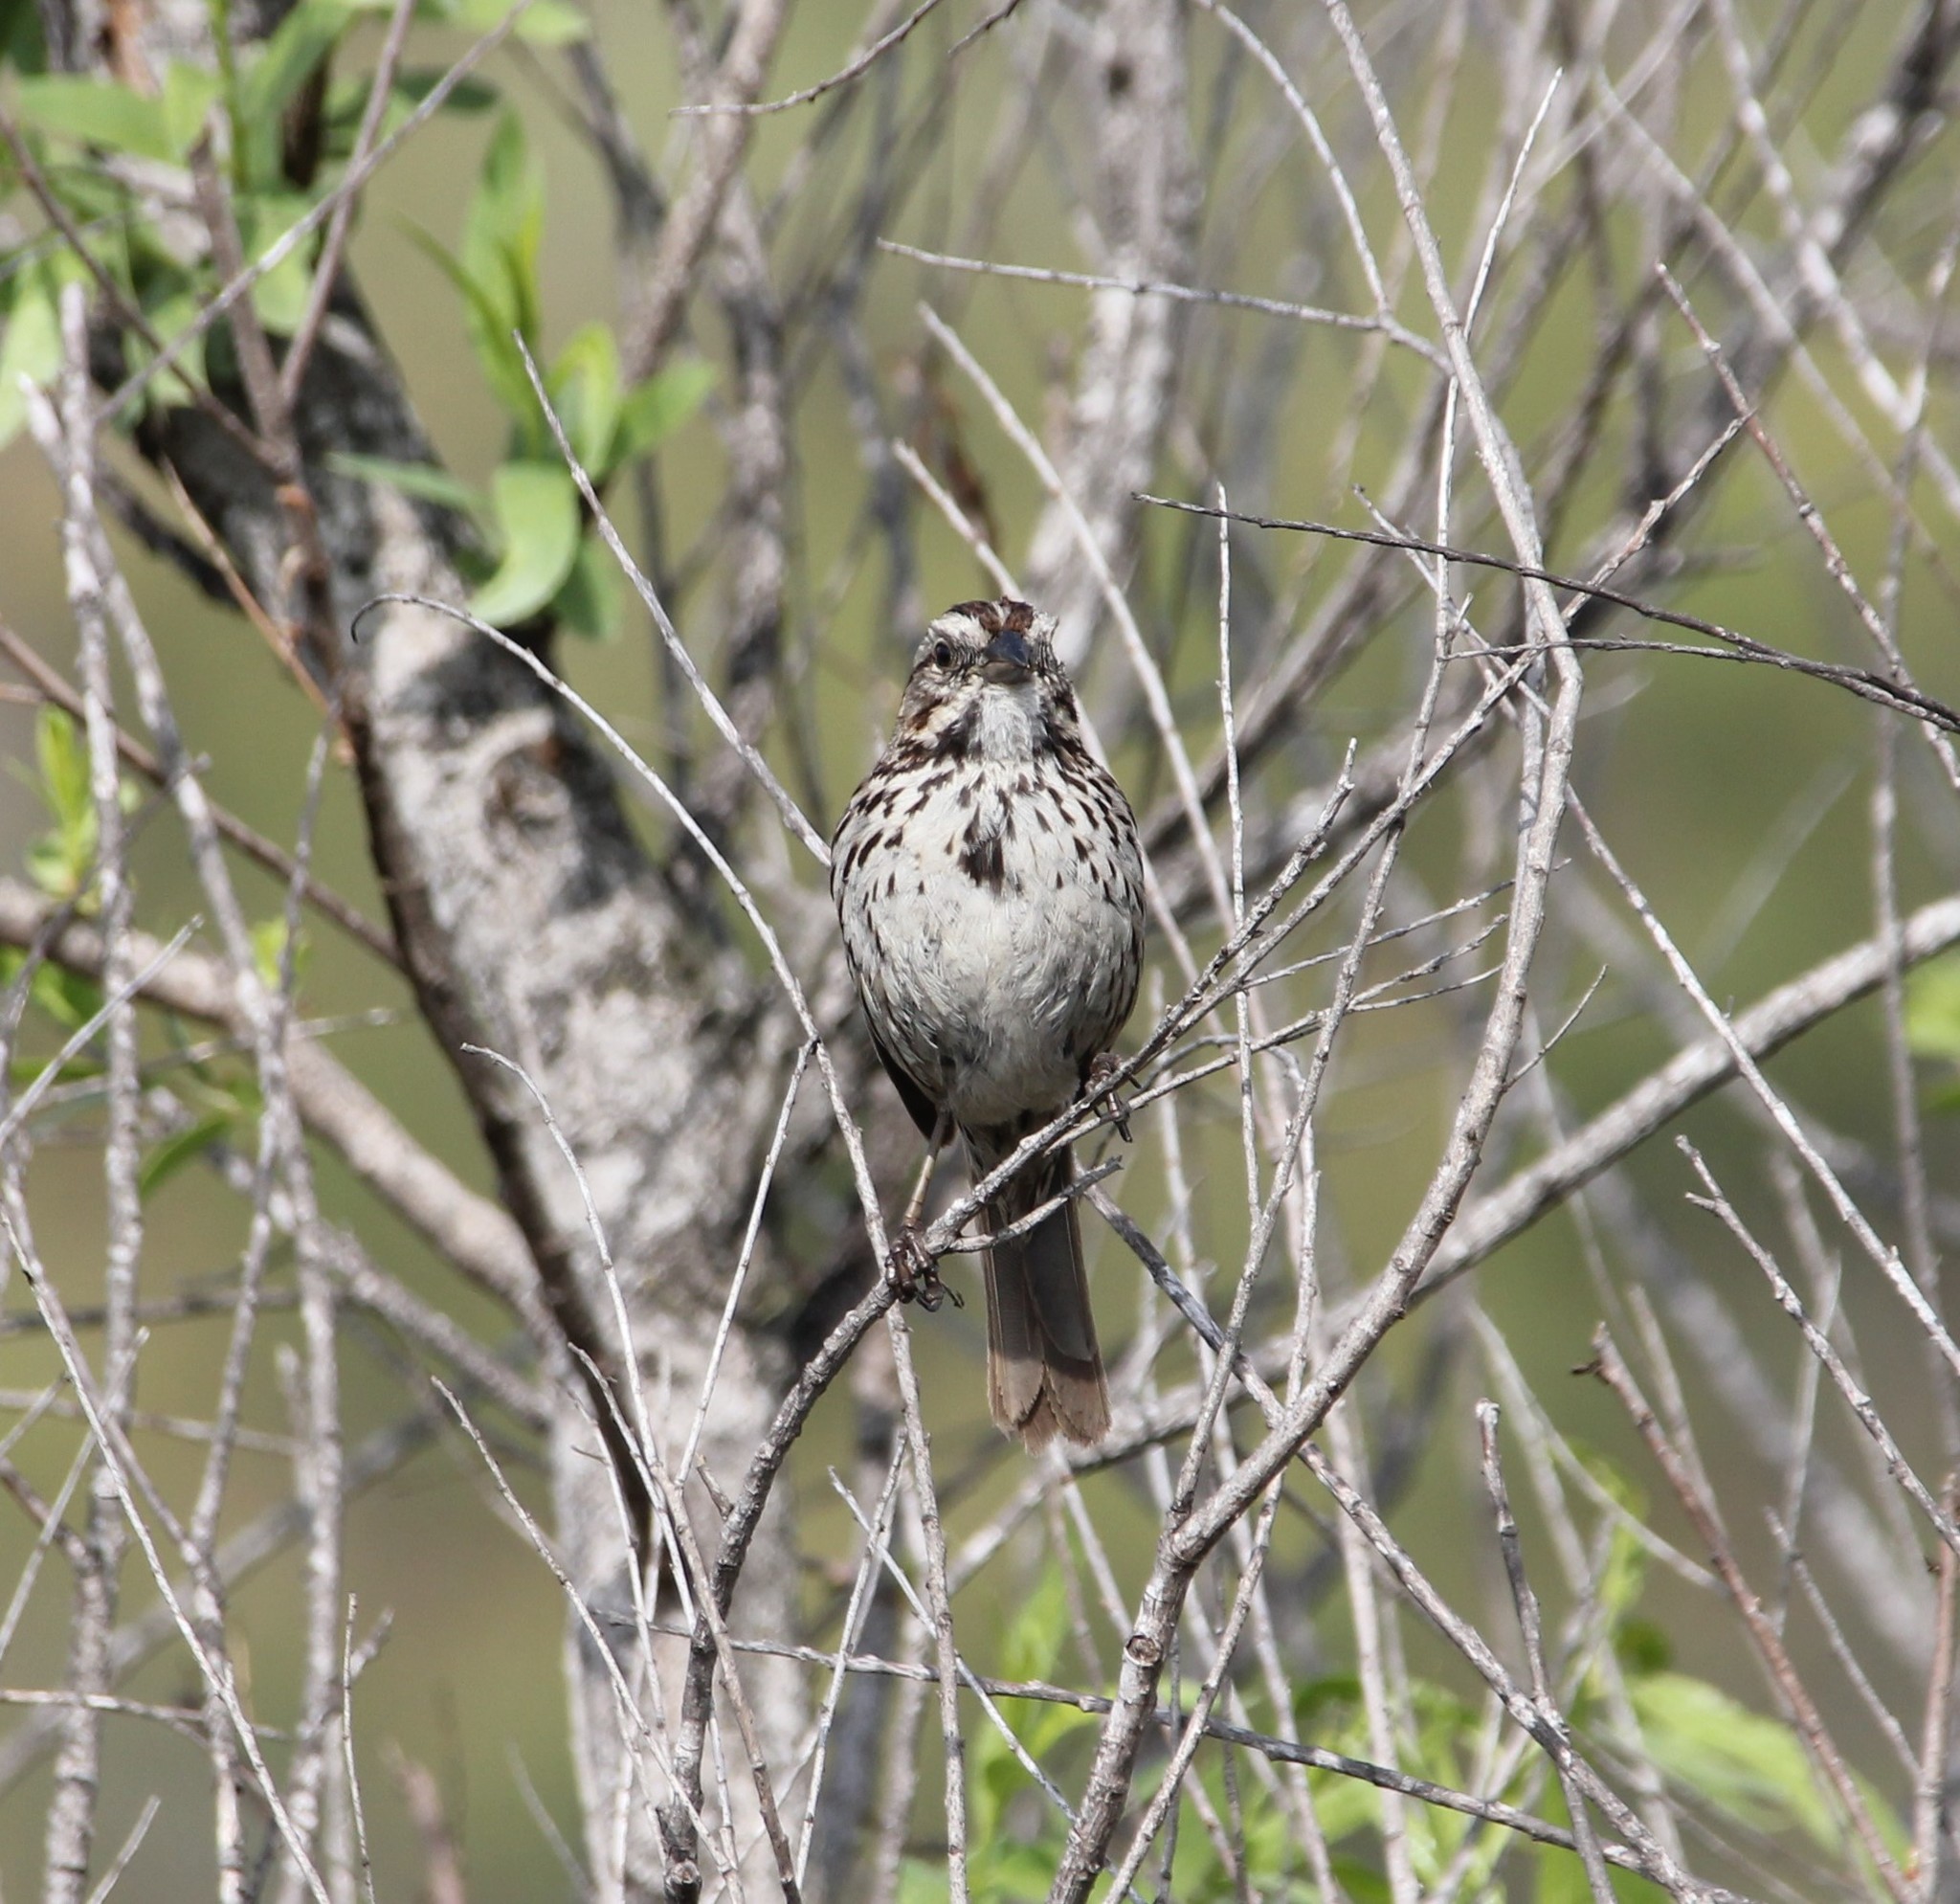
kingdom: Animalia
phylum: Chordata
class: Aves
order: Passeriformes
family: Passerellidae
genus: Melospiza
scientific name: Melospiza melodia
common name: Song sparrow
